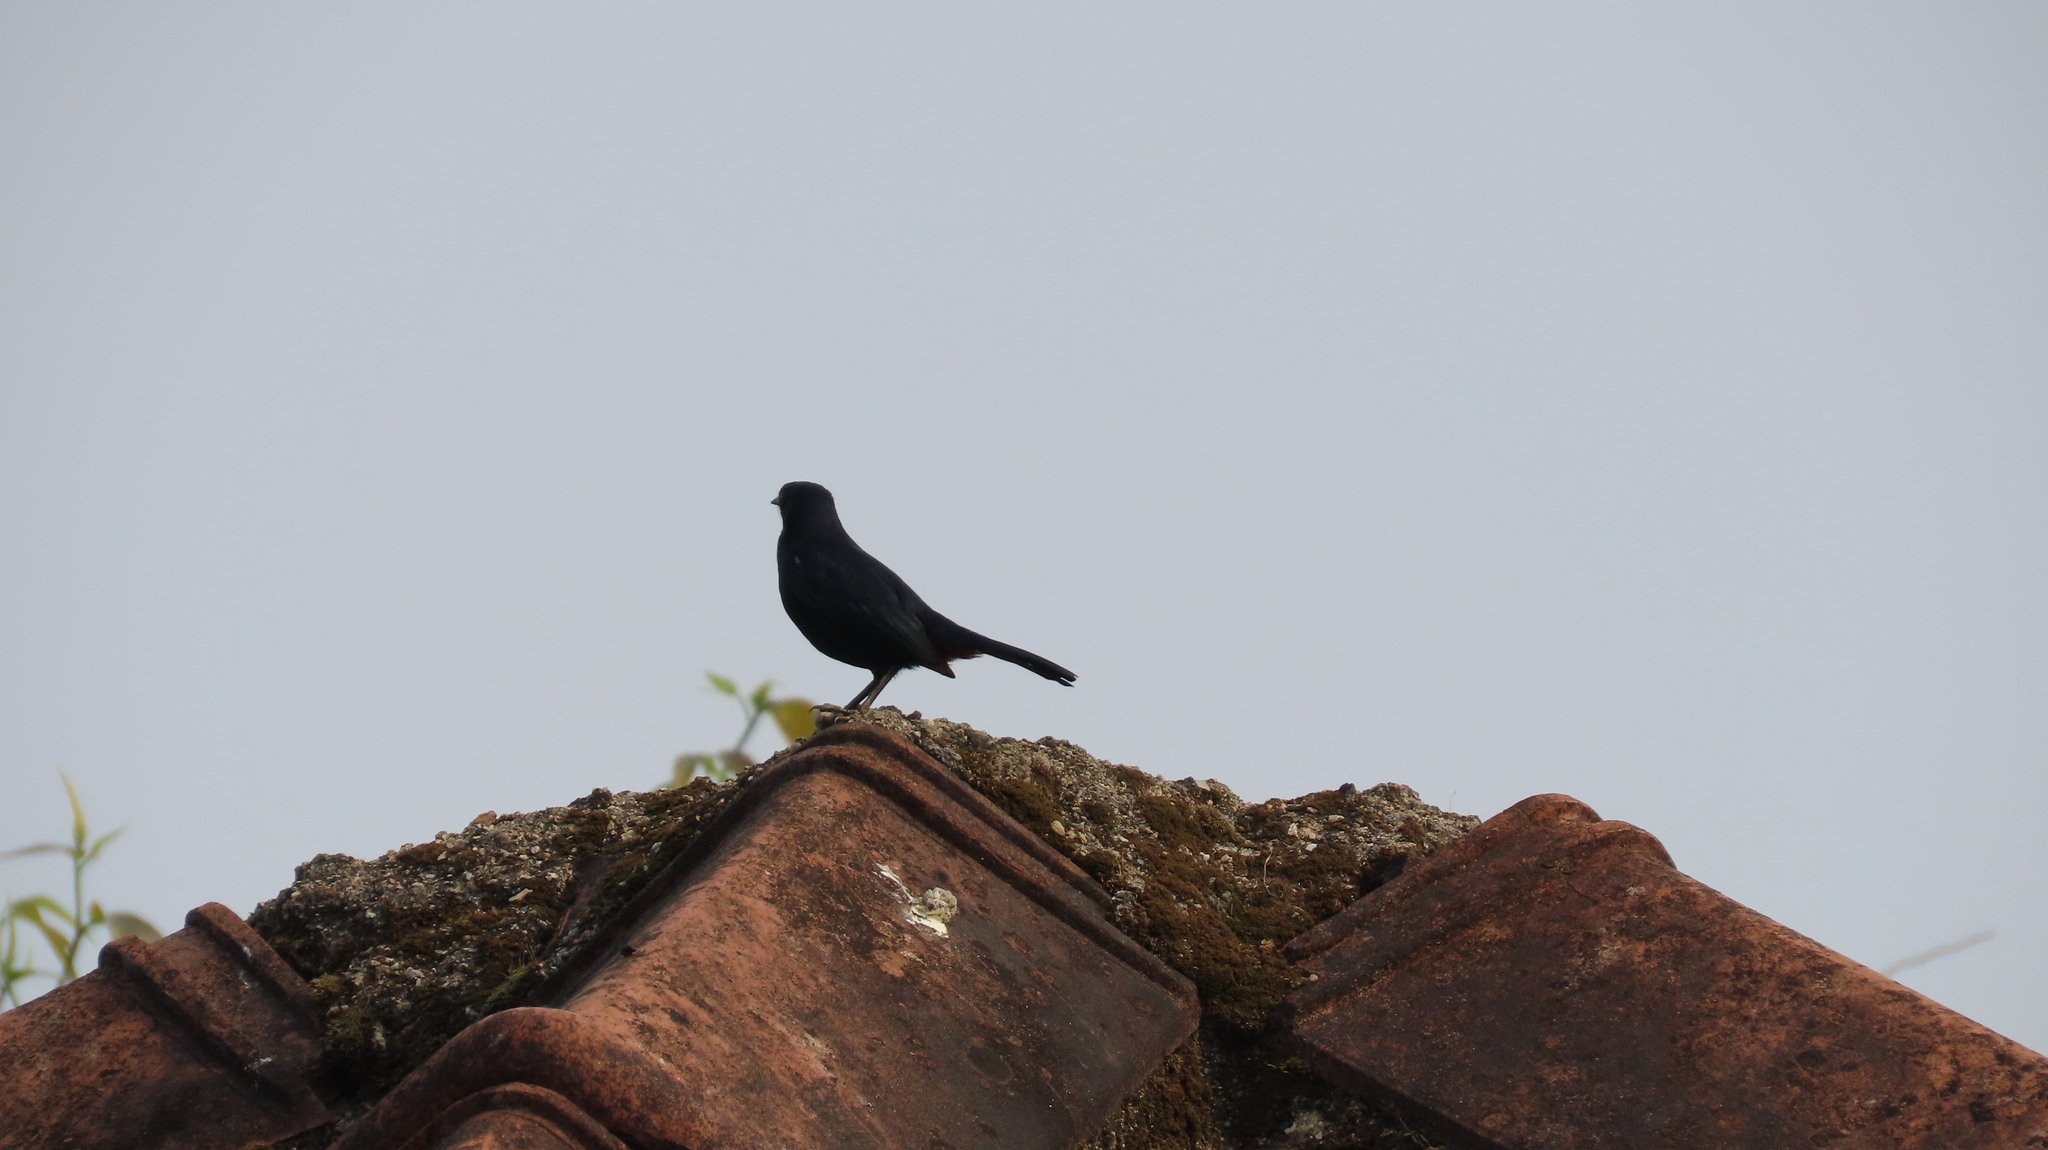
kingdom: Animalia
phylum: Chordata
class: Aves
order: Passeriformes
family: Muscicapidae
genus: Saxicoloides
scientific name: Saxicoloides fulicatus
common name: Indian robin
